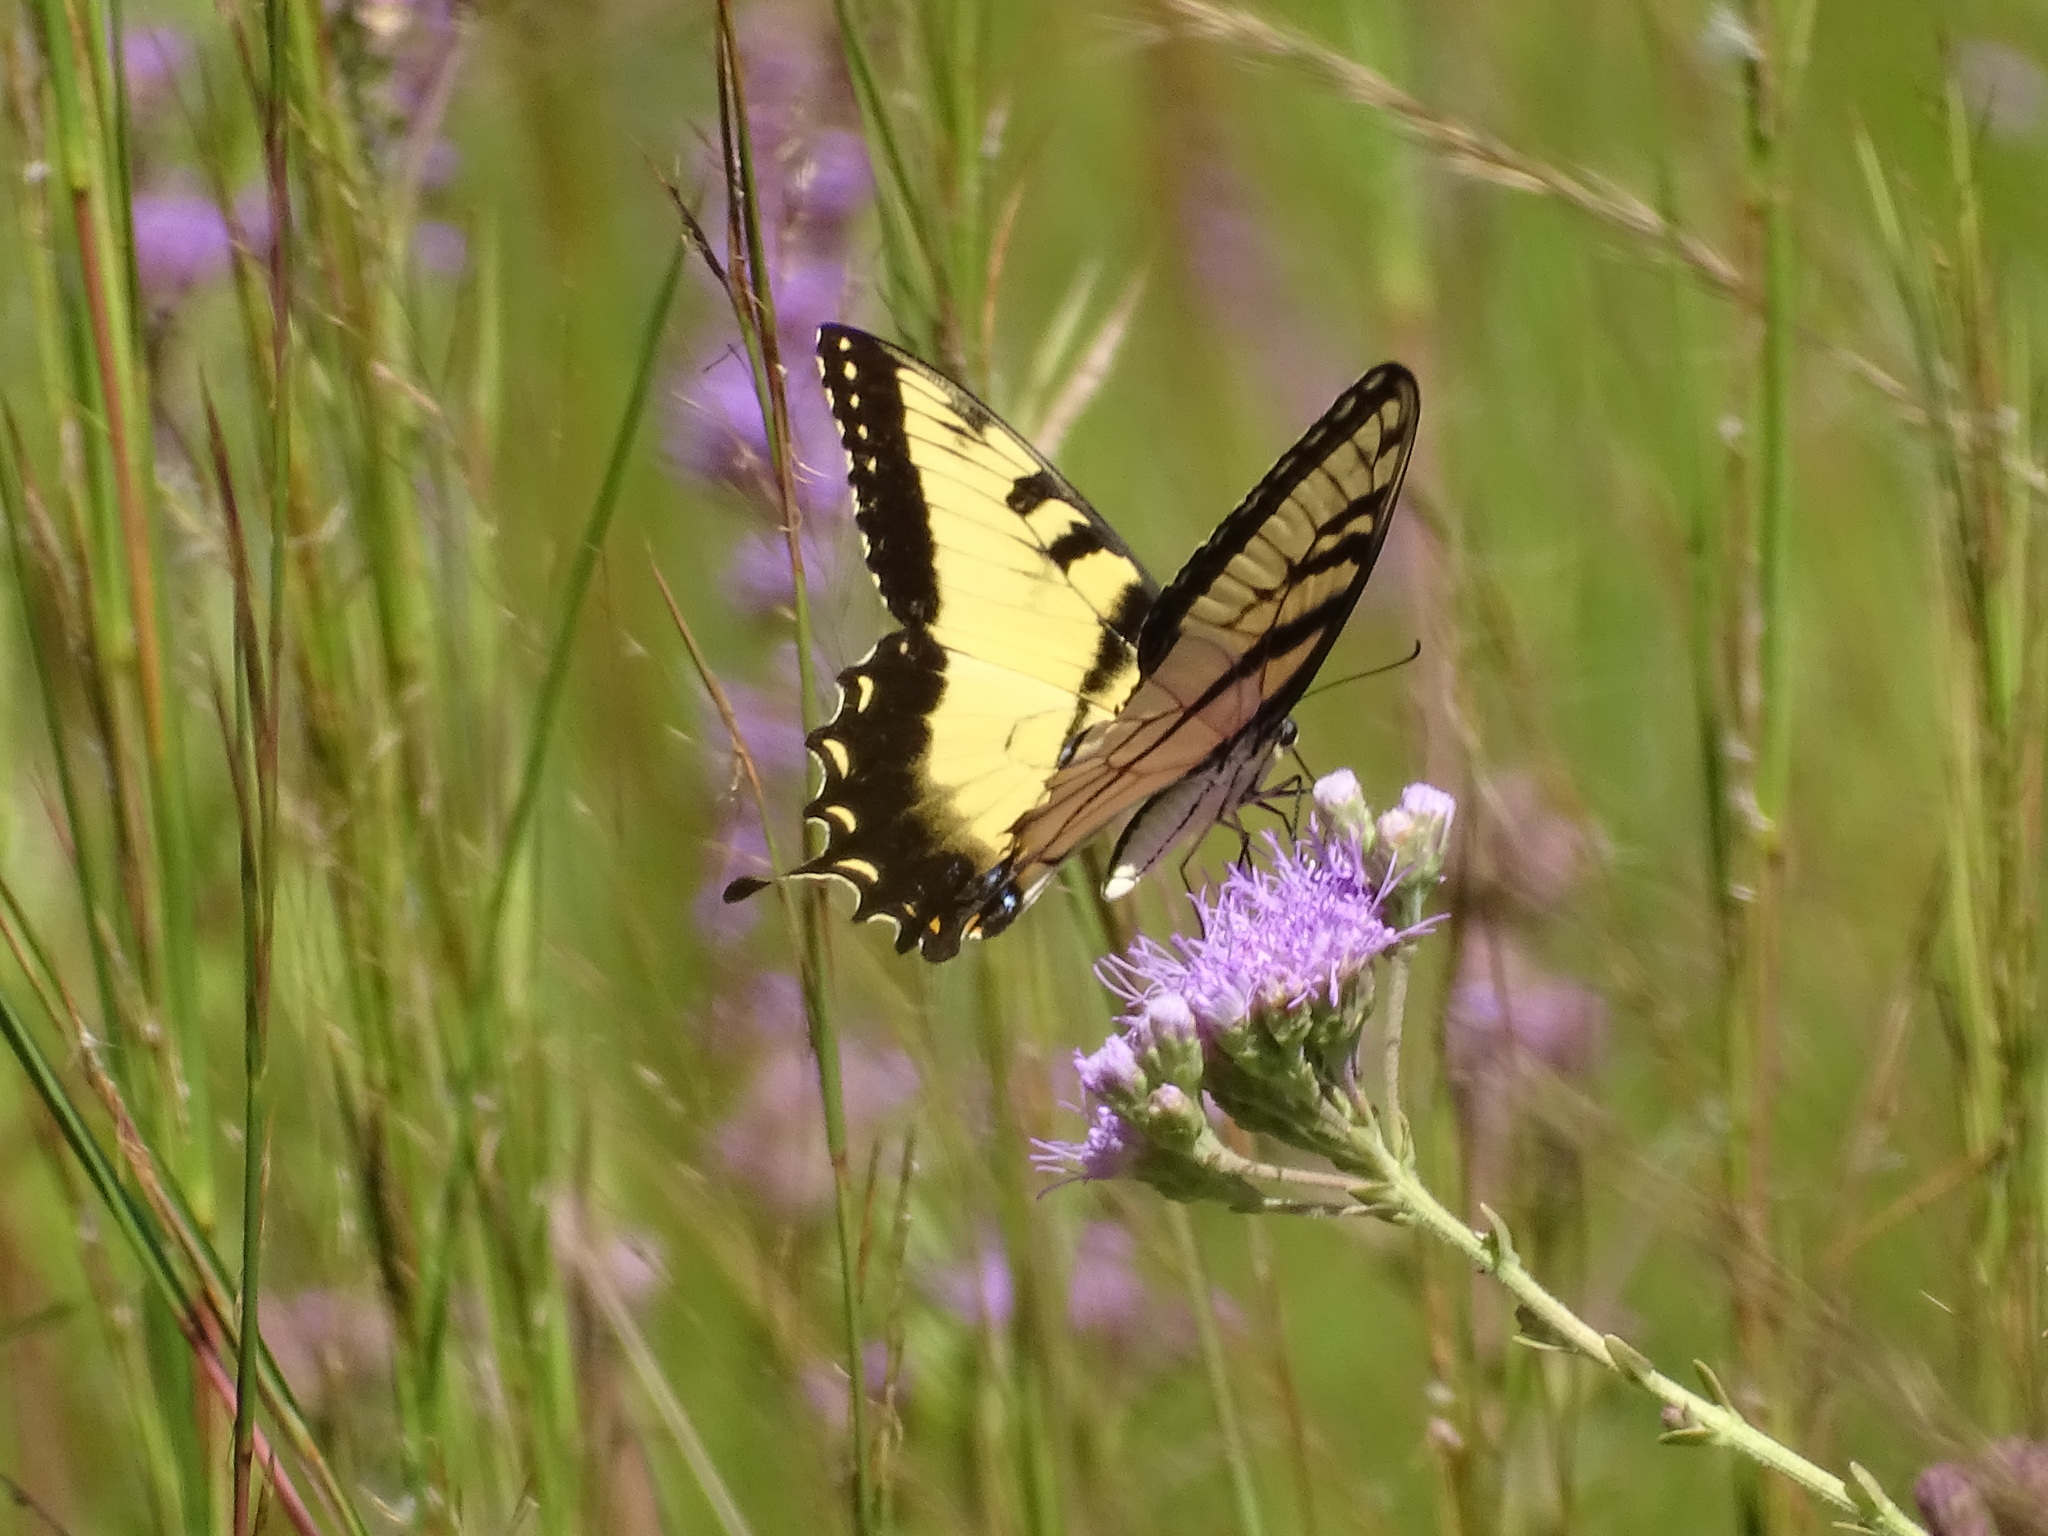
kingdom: Animalia
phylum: Arthropoda
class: Insecta
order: Lepidoptera
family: Papilionidae
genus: Papilio
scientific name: Papilio glaucus
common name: Tiger swallowtail
